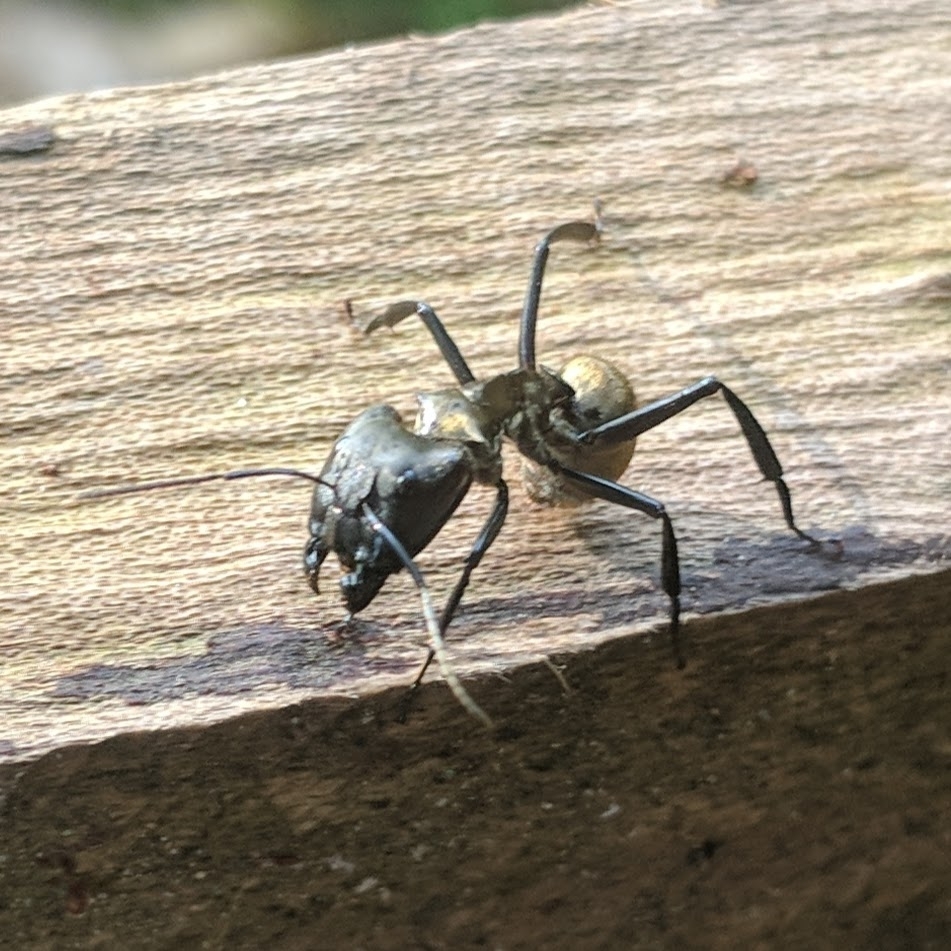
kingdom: Animalia
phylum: Arthropoda
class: Insecta
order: Hymenoptera
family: Formicidae
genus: Camponotus
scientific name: Camponotus sericeiventris
